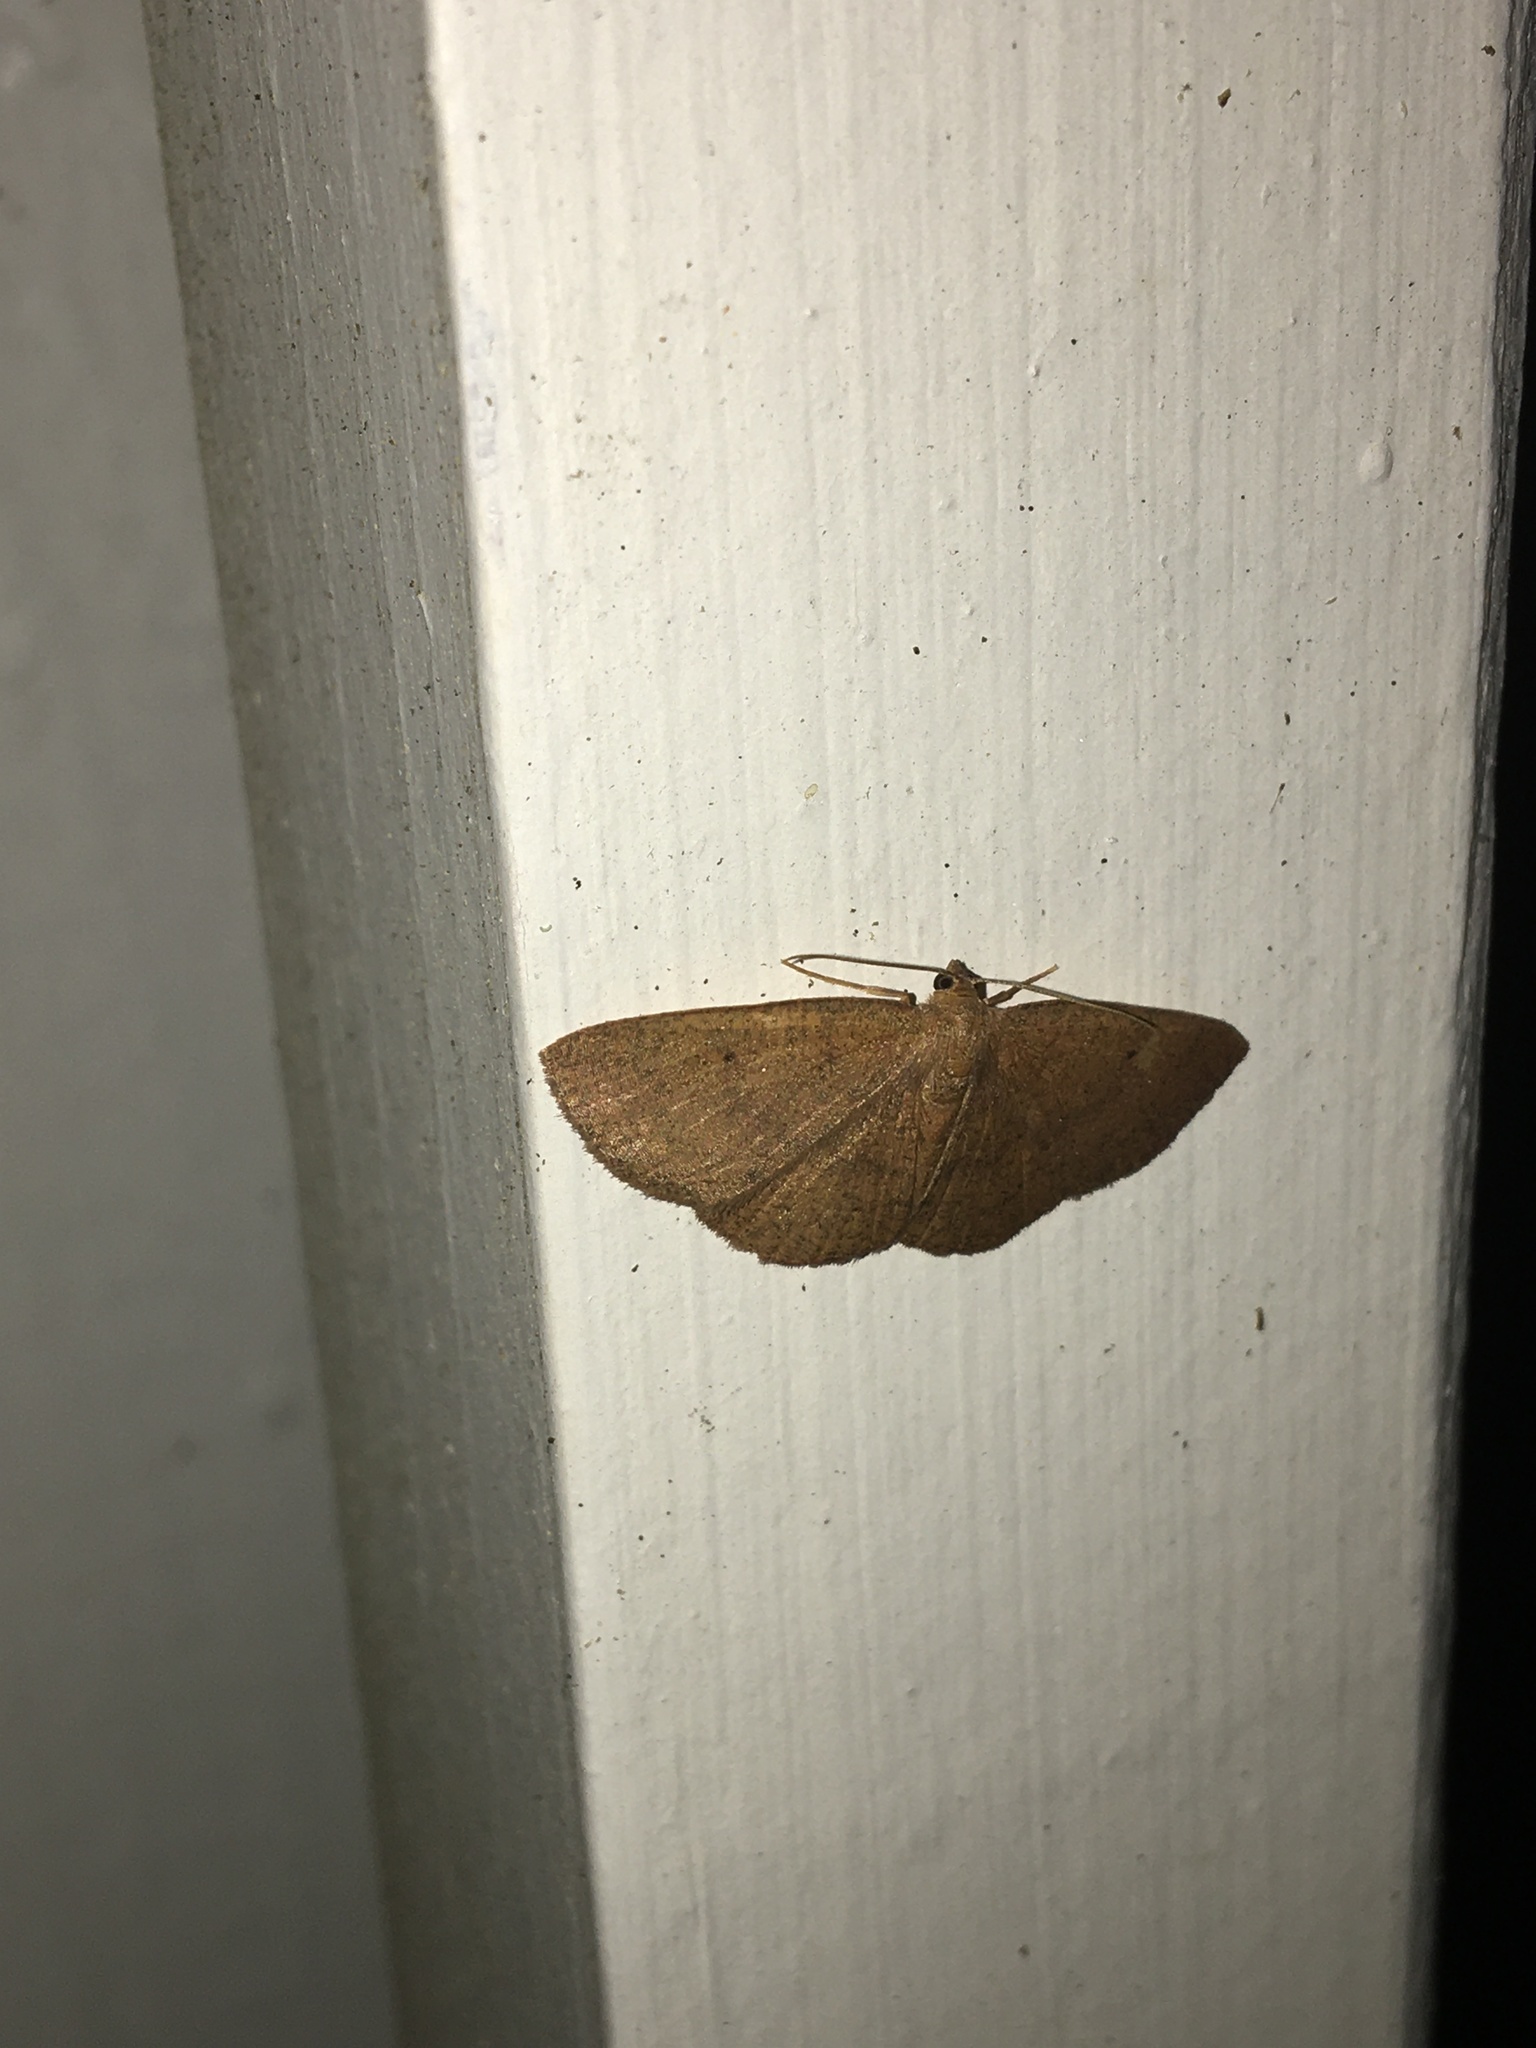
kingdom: Animalia
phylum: Arthropoda
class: Insecta
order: Lepidoptera
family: Geometridae
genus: Ilexia
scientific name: Ilexia intractata
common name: Black-dotted ruddy moth
